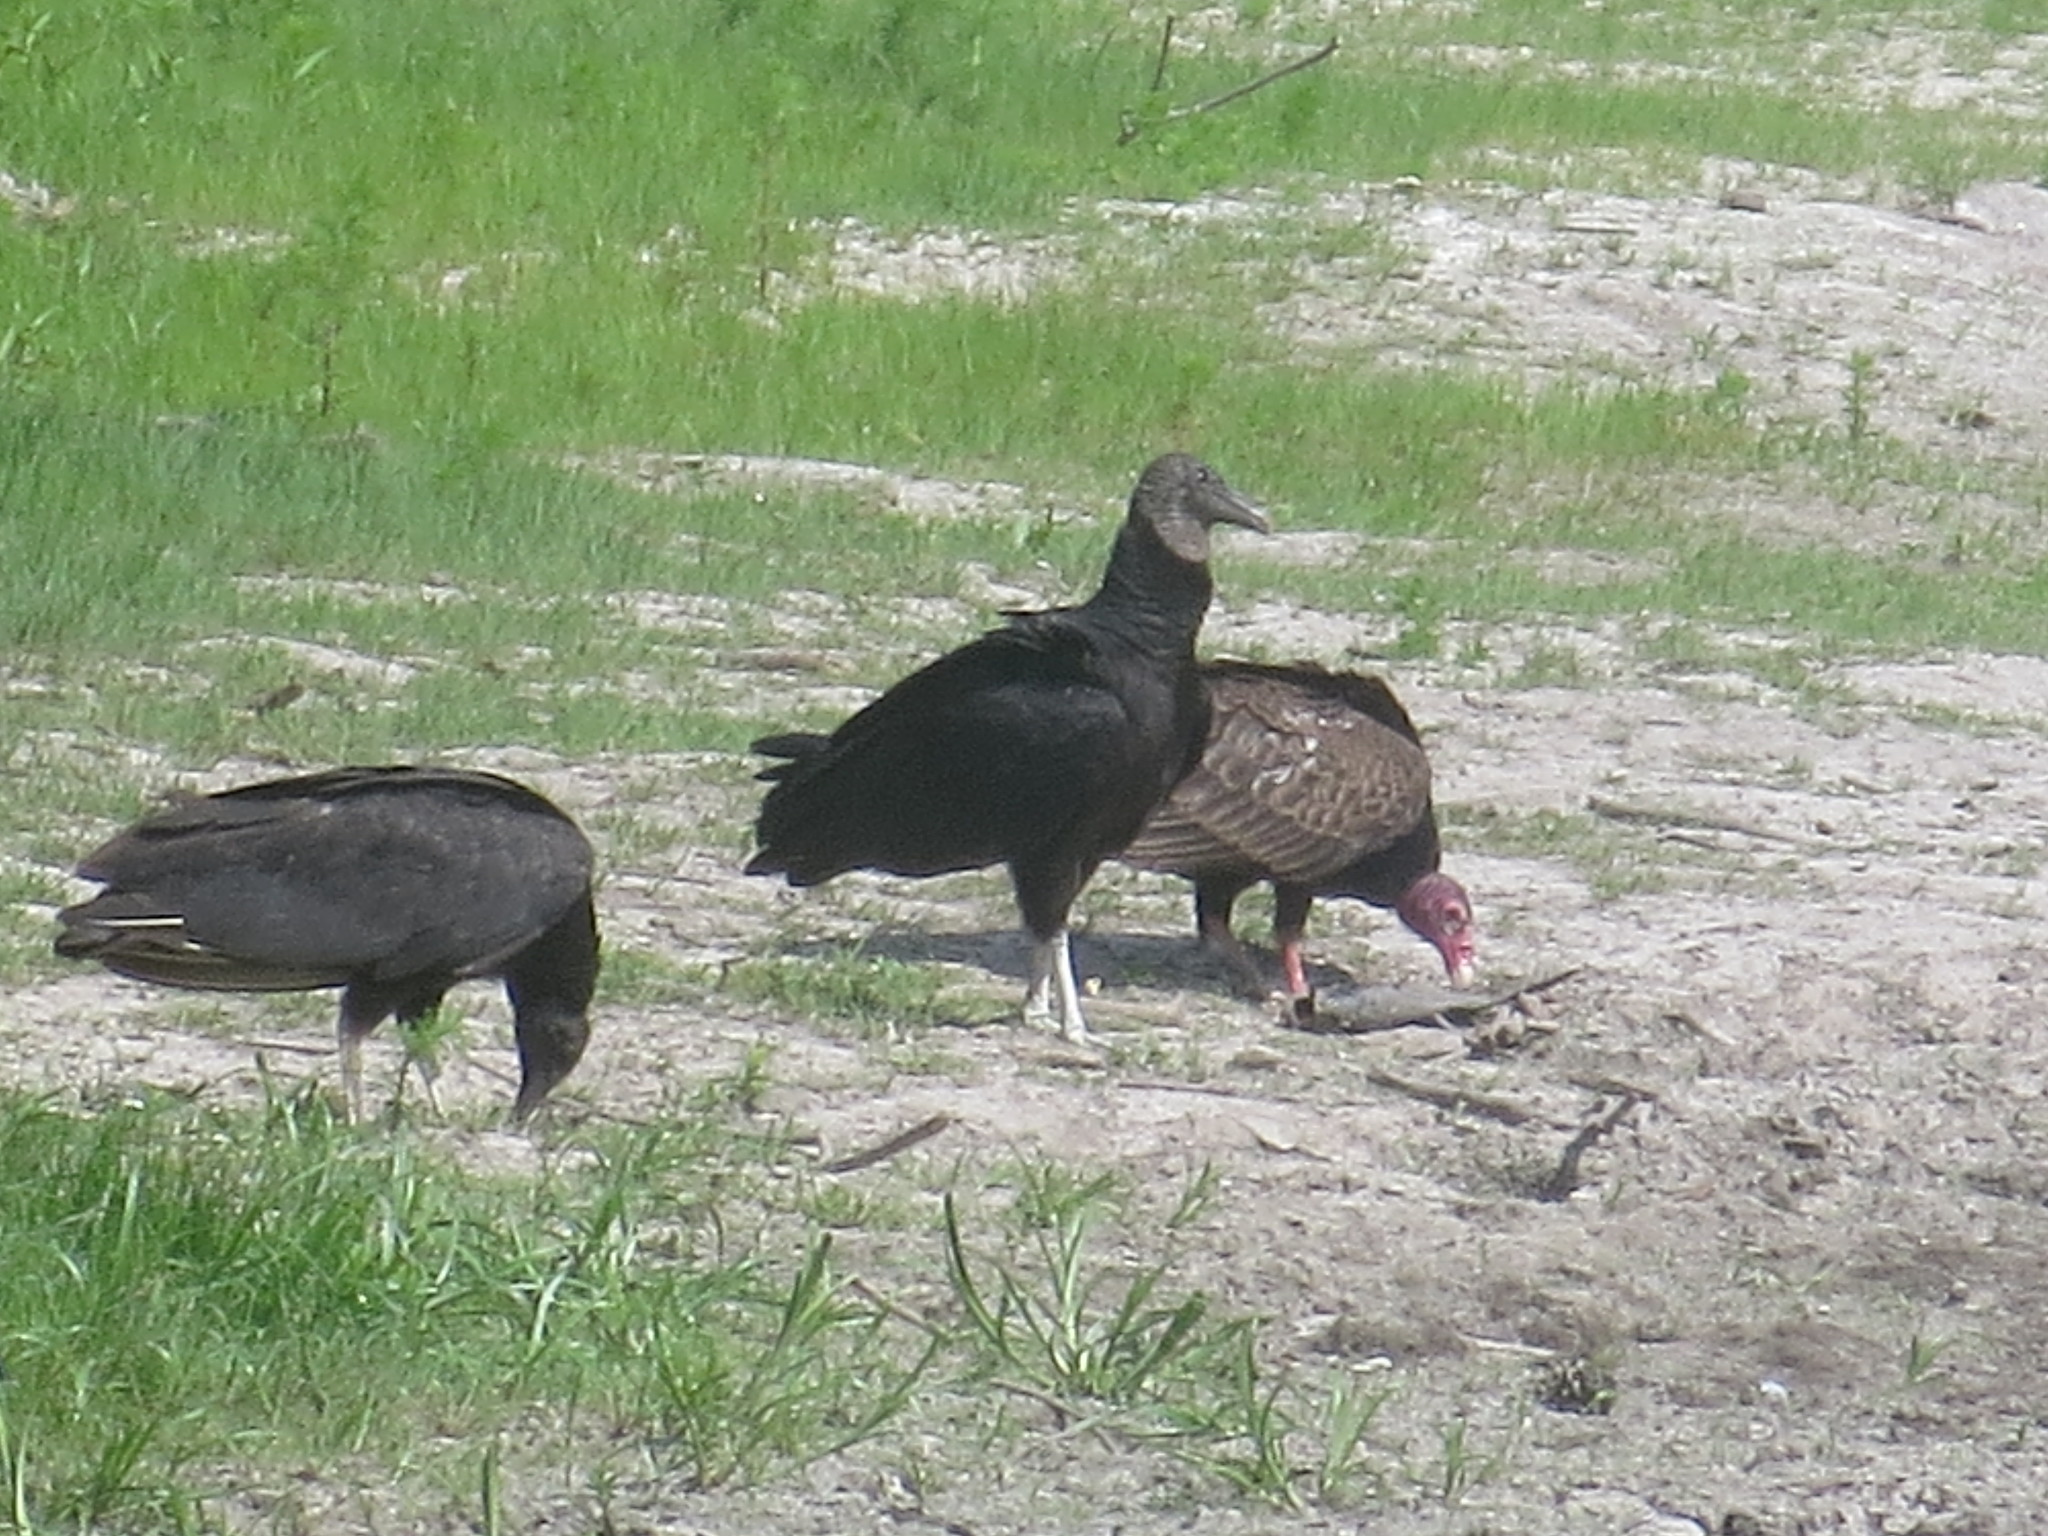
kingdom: Animalia
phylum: Chordata
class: Aves
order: Accipitriformes
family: Cathartidae
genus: Coragyps
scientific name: Coragyps atratus
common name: Black vulture
